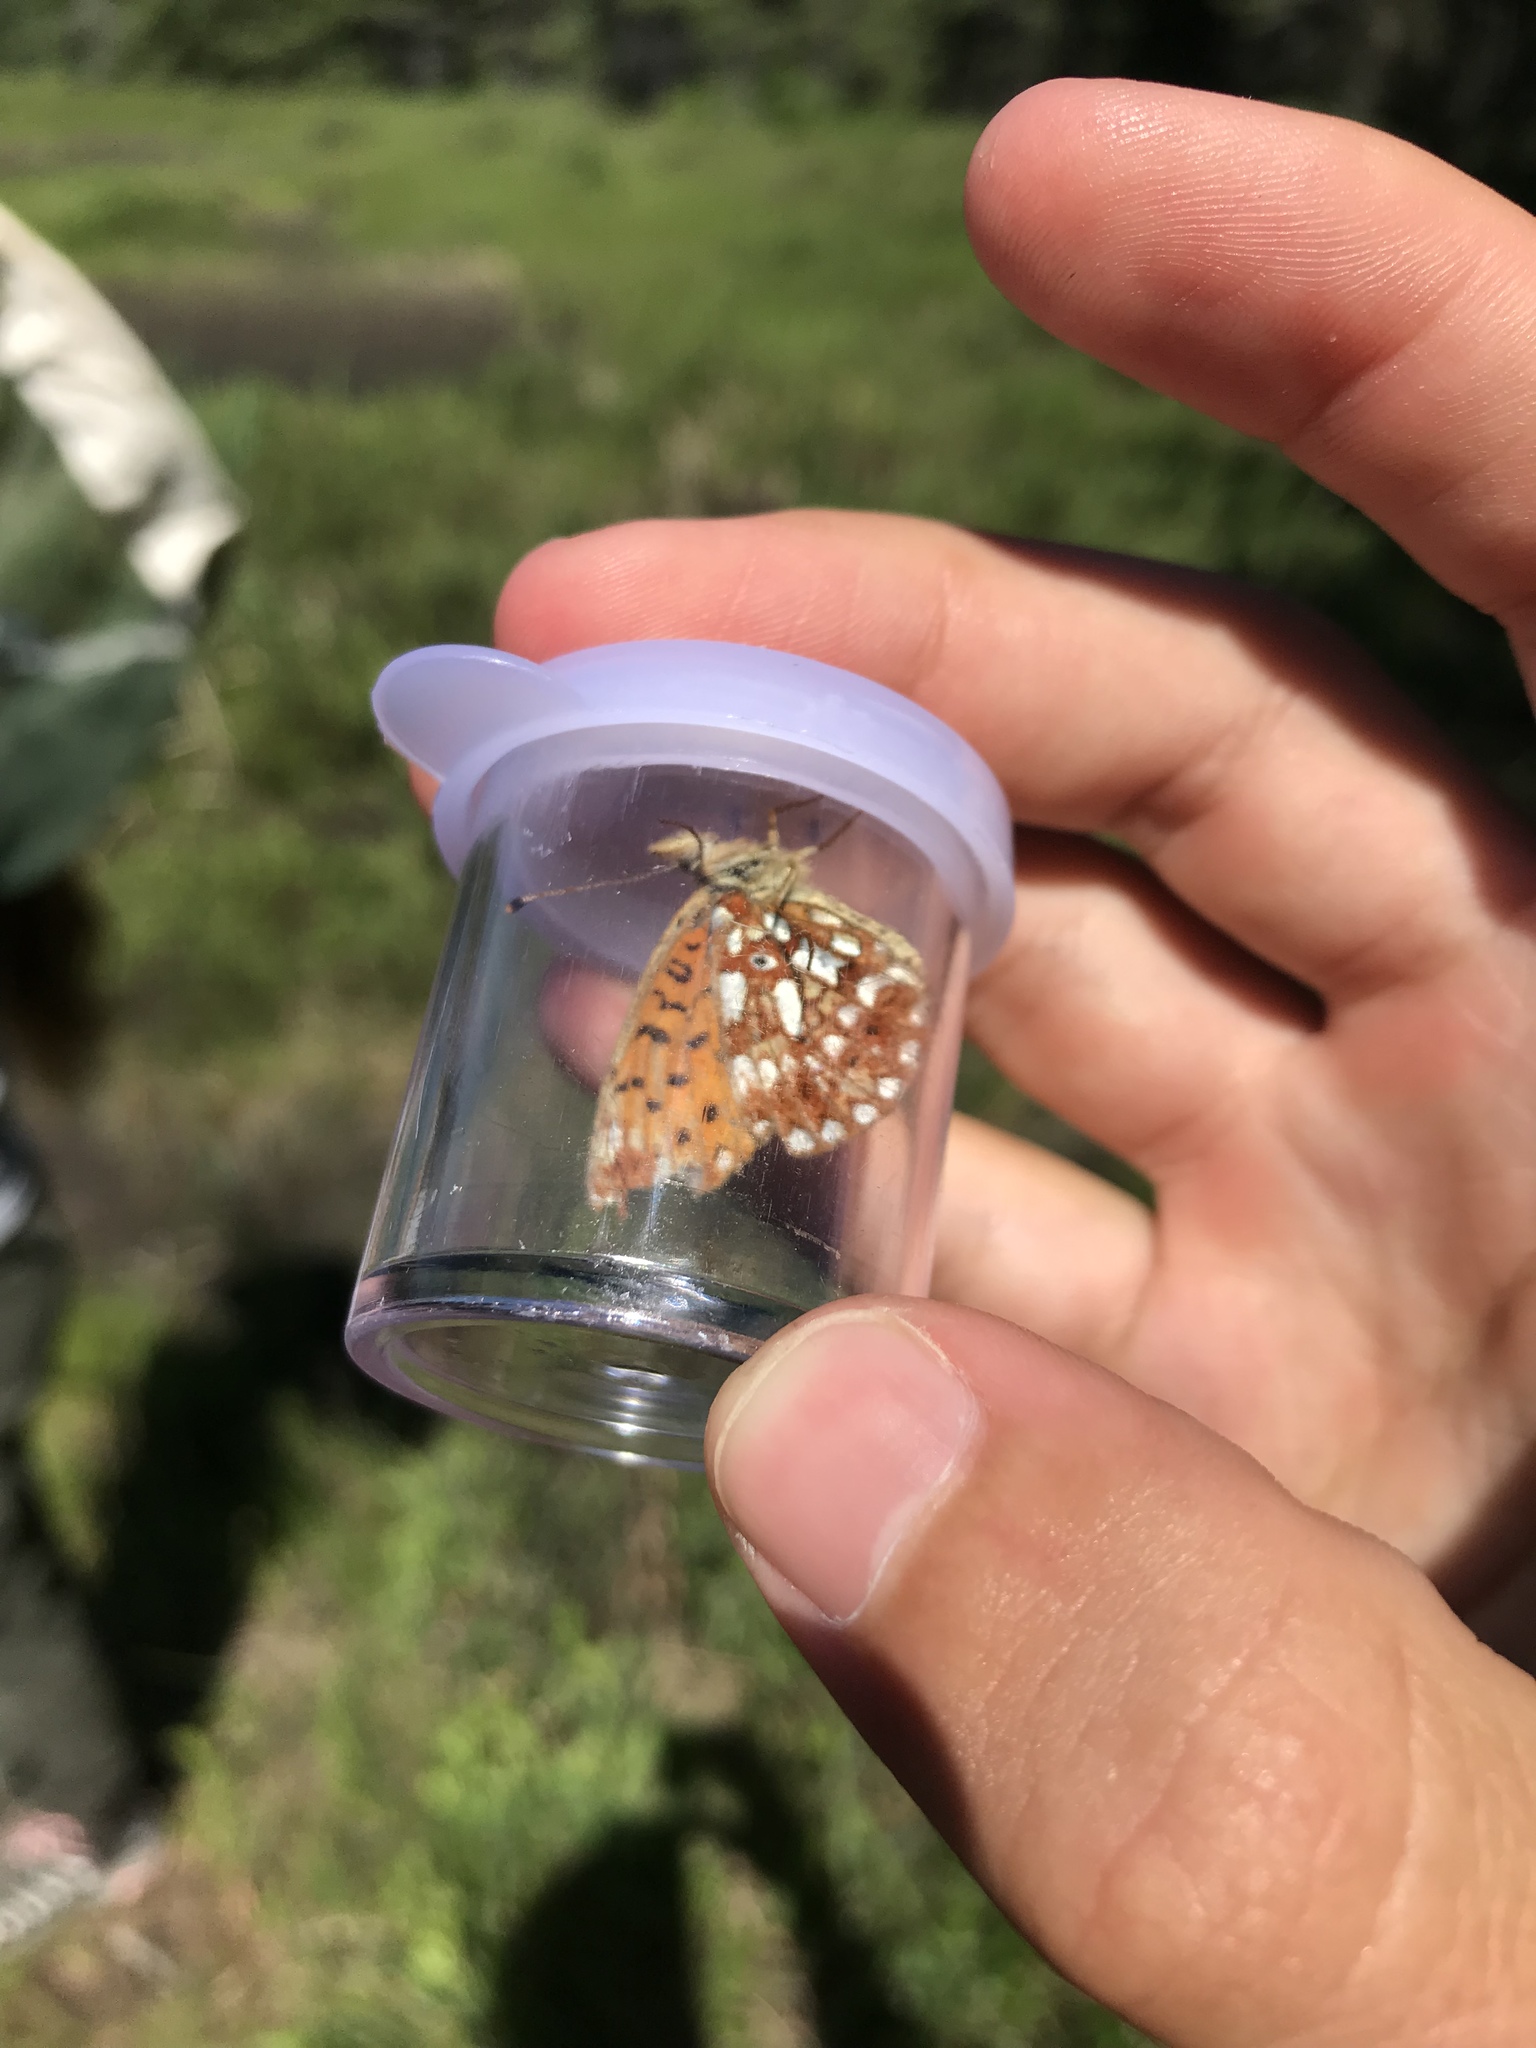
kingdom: Animalia
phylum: Arthropoda
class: Insecta
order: Lepidoptera
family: Nymphalidae
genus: Boloria
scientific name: Boloria
